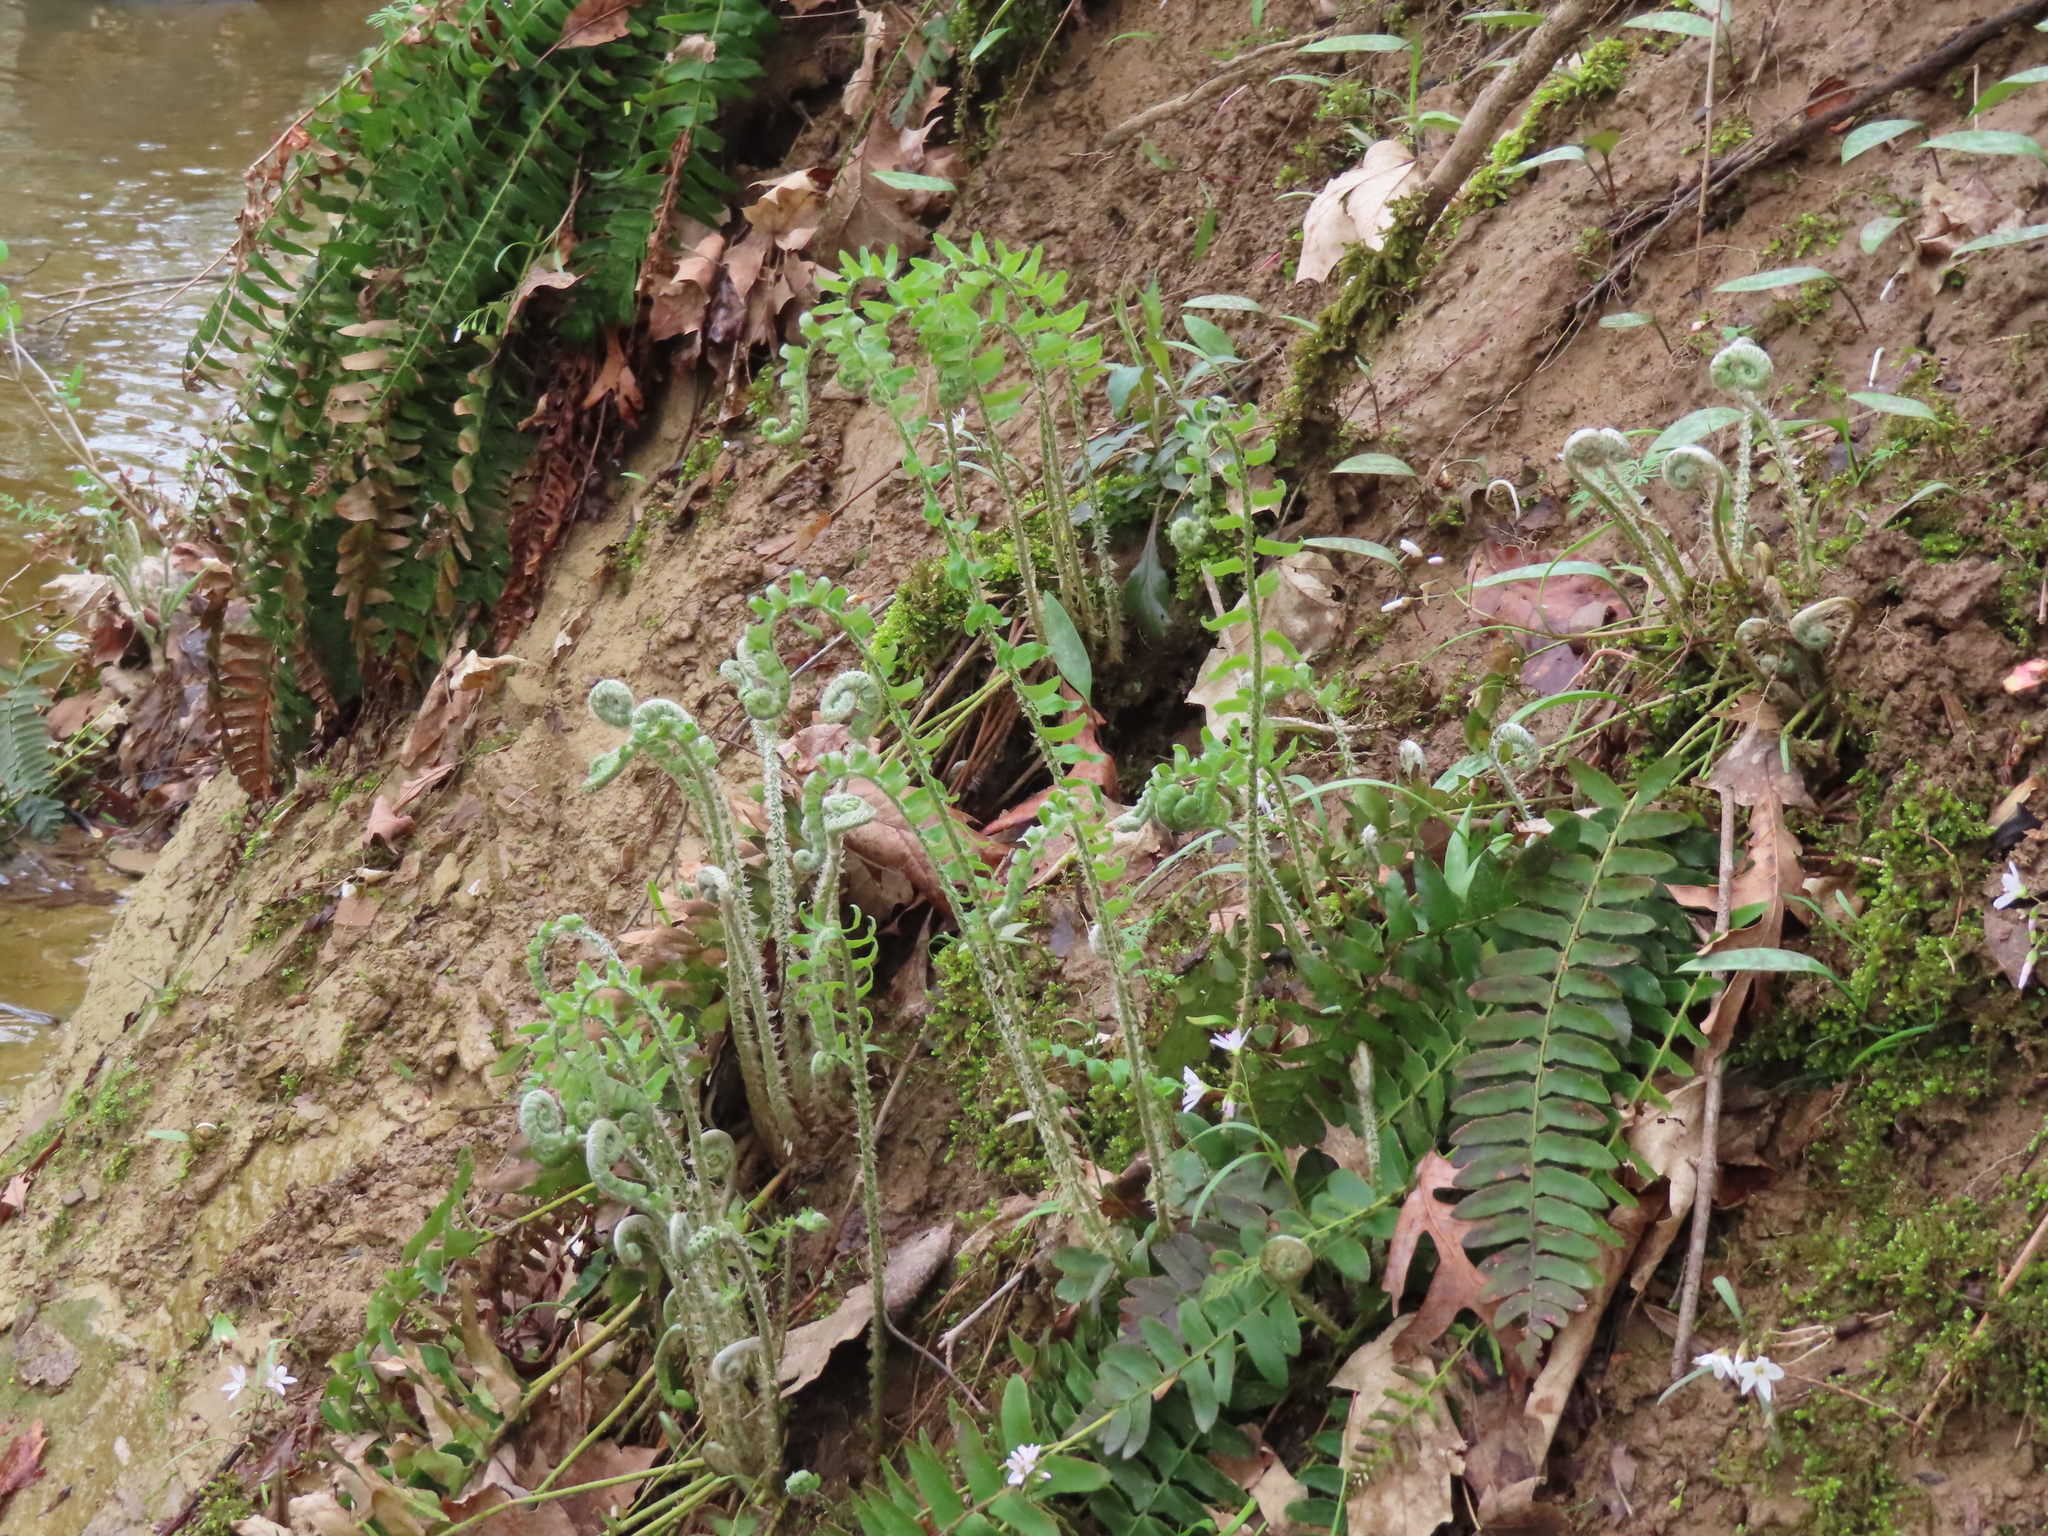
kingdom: Plantae
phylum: Tracheophyta
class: Polypodiopsida
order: Polypodiales
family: Dryopteridaceae
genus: Polystichum
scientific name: Polystichum acrostichoides
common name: Christmas fern
